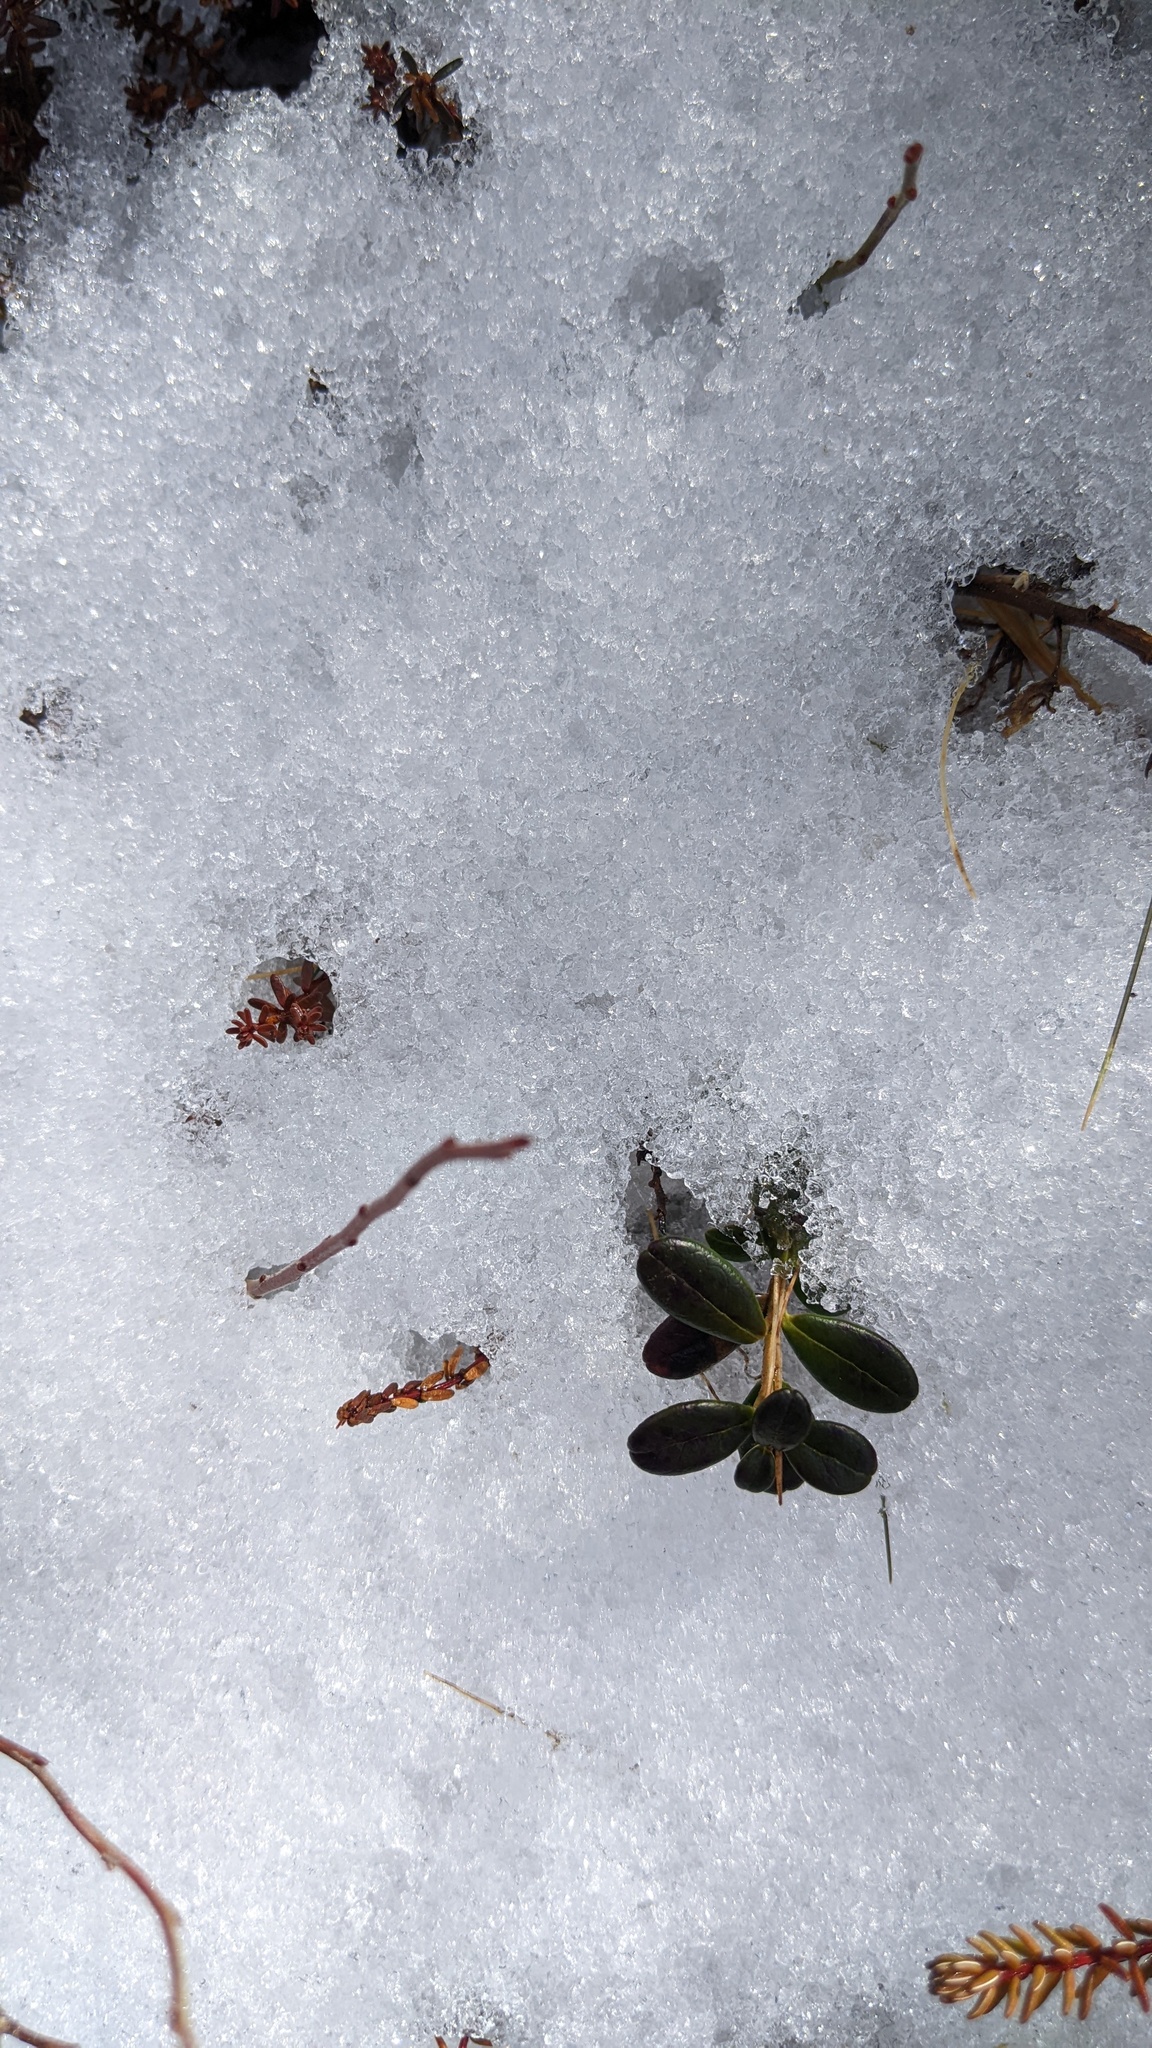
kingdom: Plantae
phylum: Tracheophyta
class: Magnoliopsida
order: Ericales
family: Ericaceae
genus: Vaccinium
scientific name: Vaccinium vitis-idaea
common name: Cowberry
